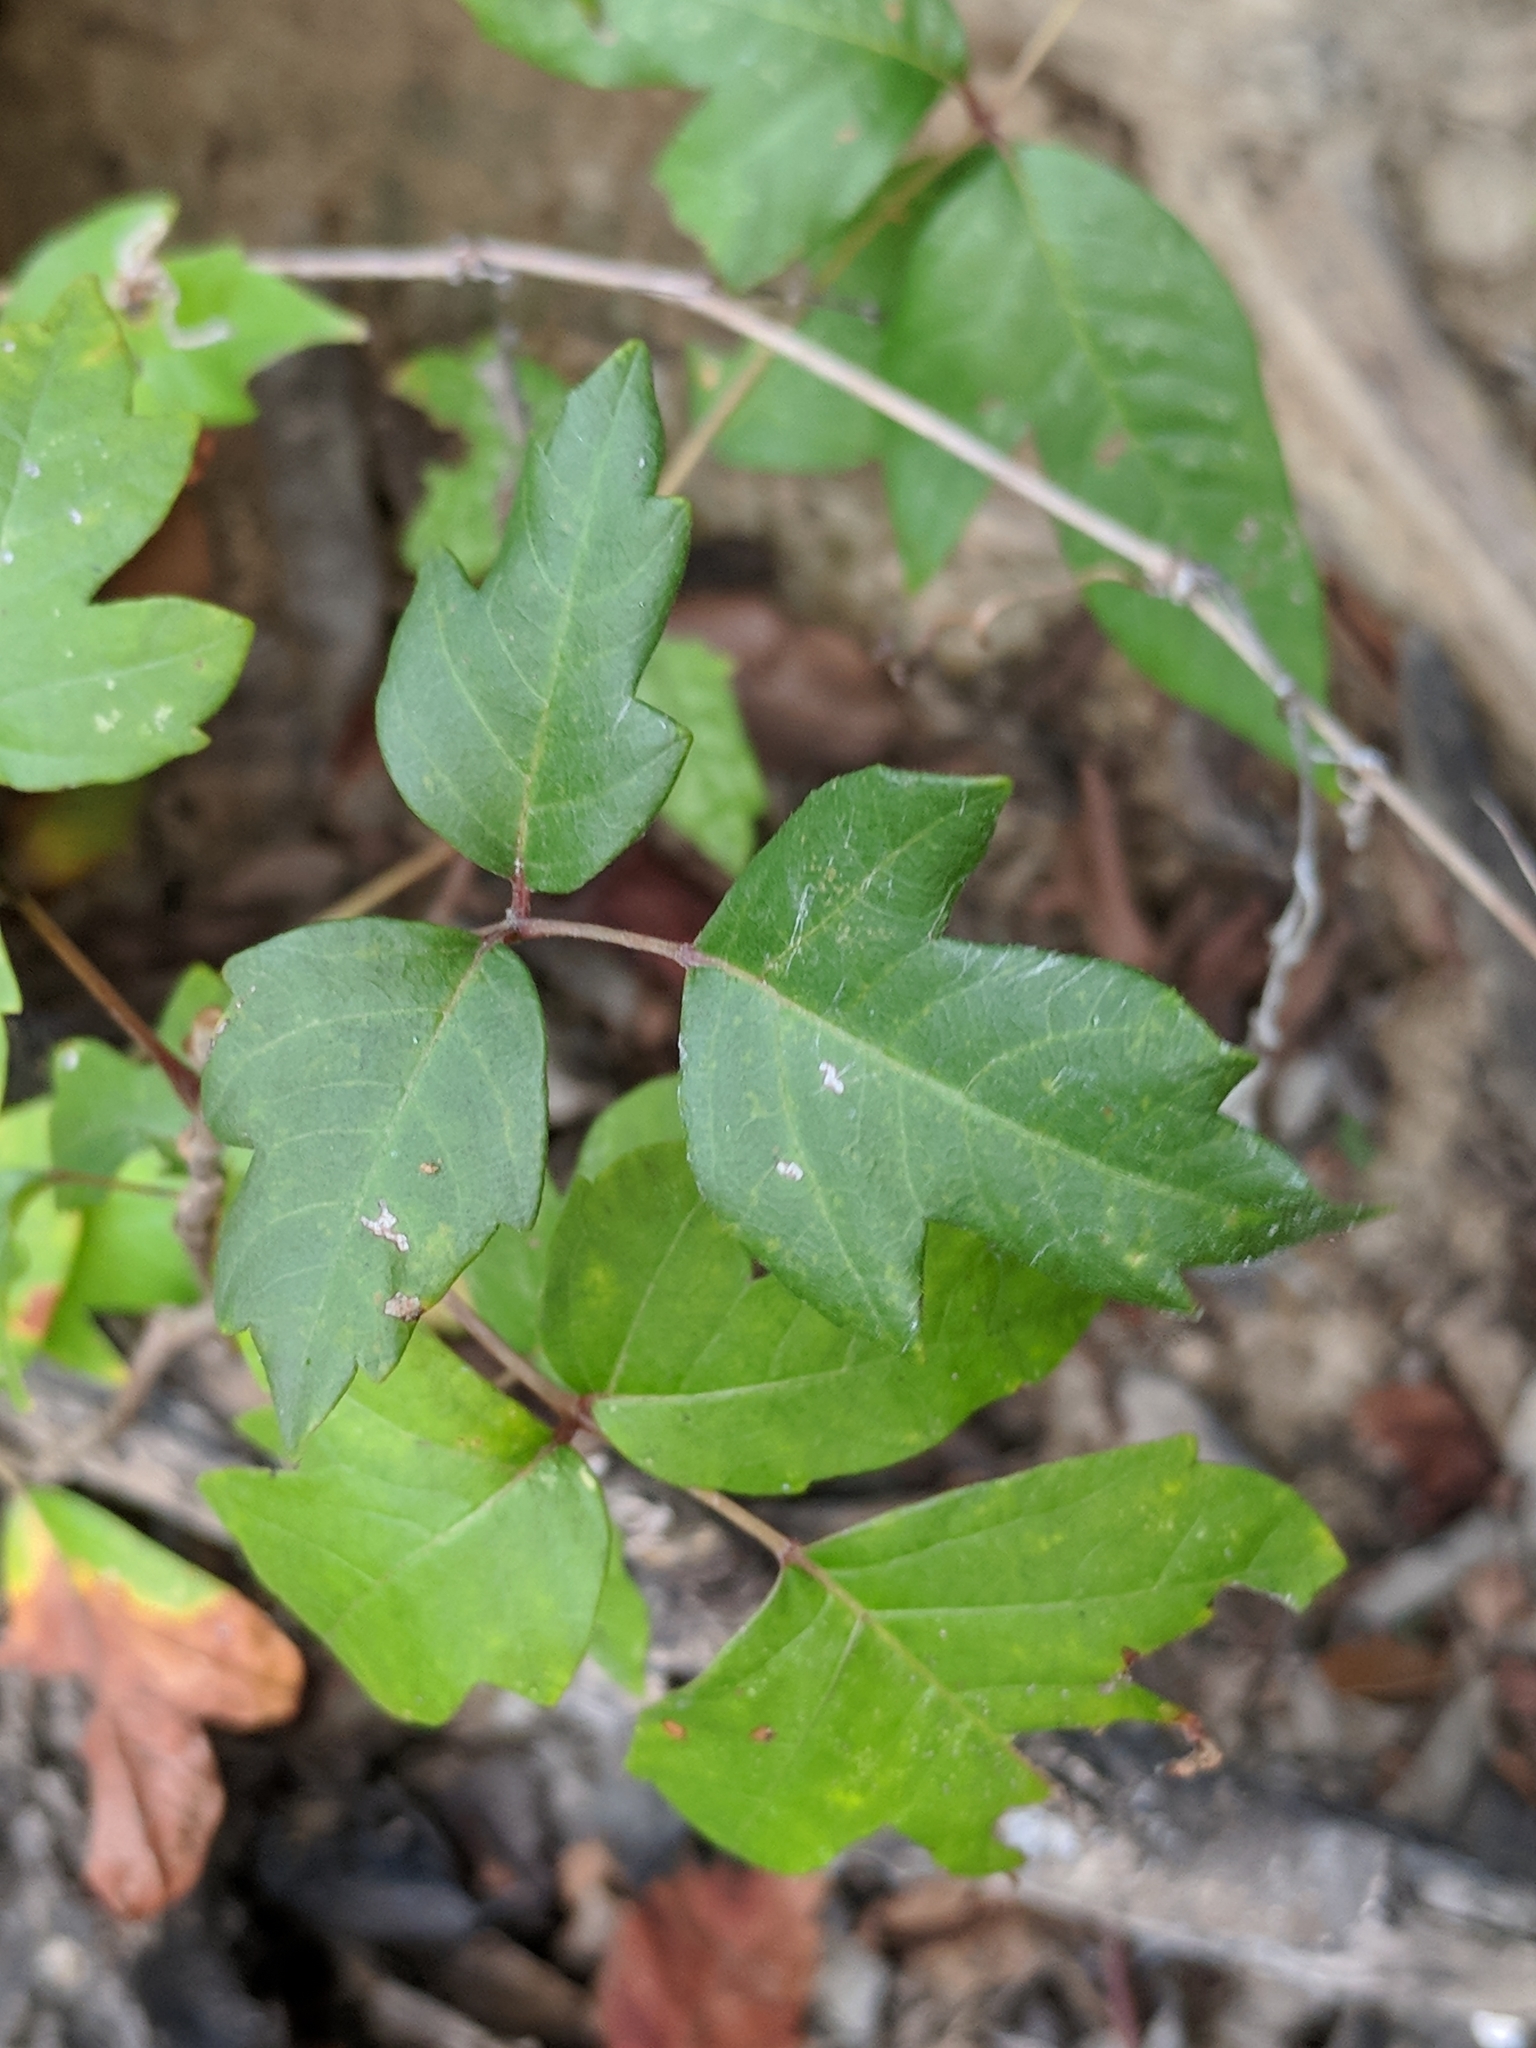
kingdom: Plantae
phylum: Tracheophyta
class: Magnoliopsida
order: Sapindales
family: Anacardiaceae
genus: Toxicodendron
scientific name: Toxicodendron radicans
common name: Poison ivy
